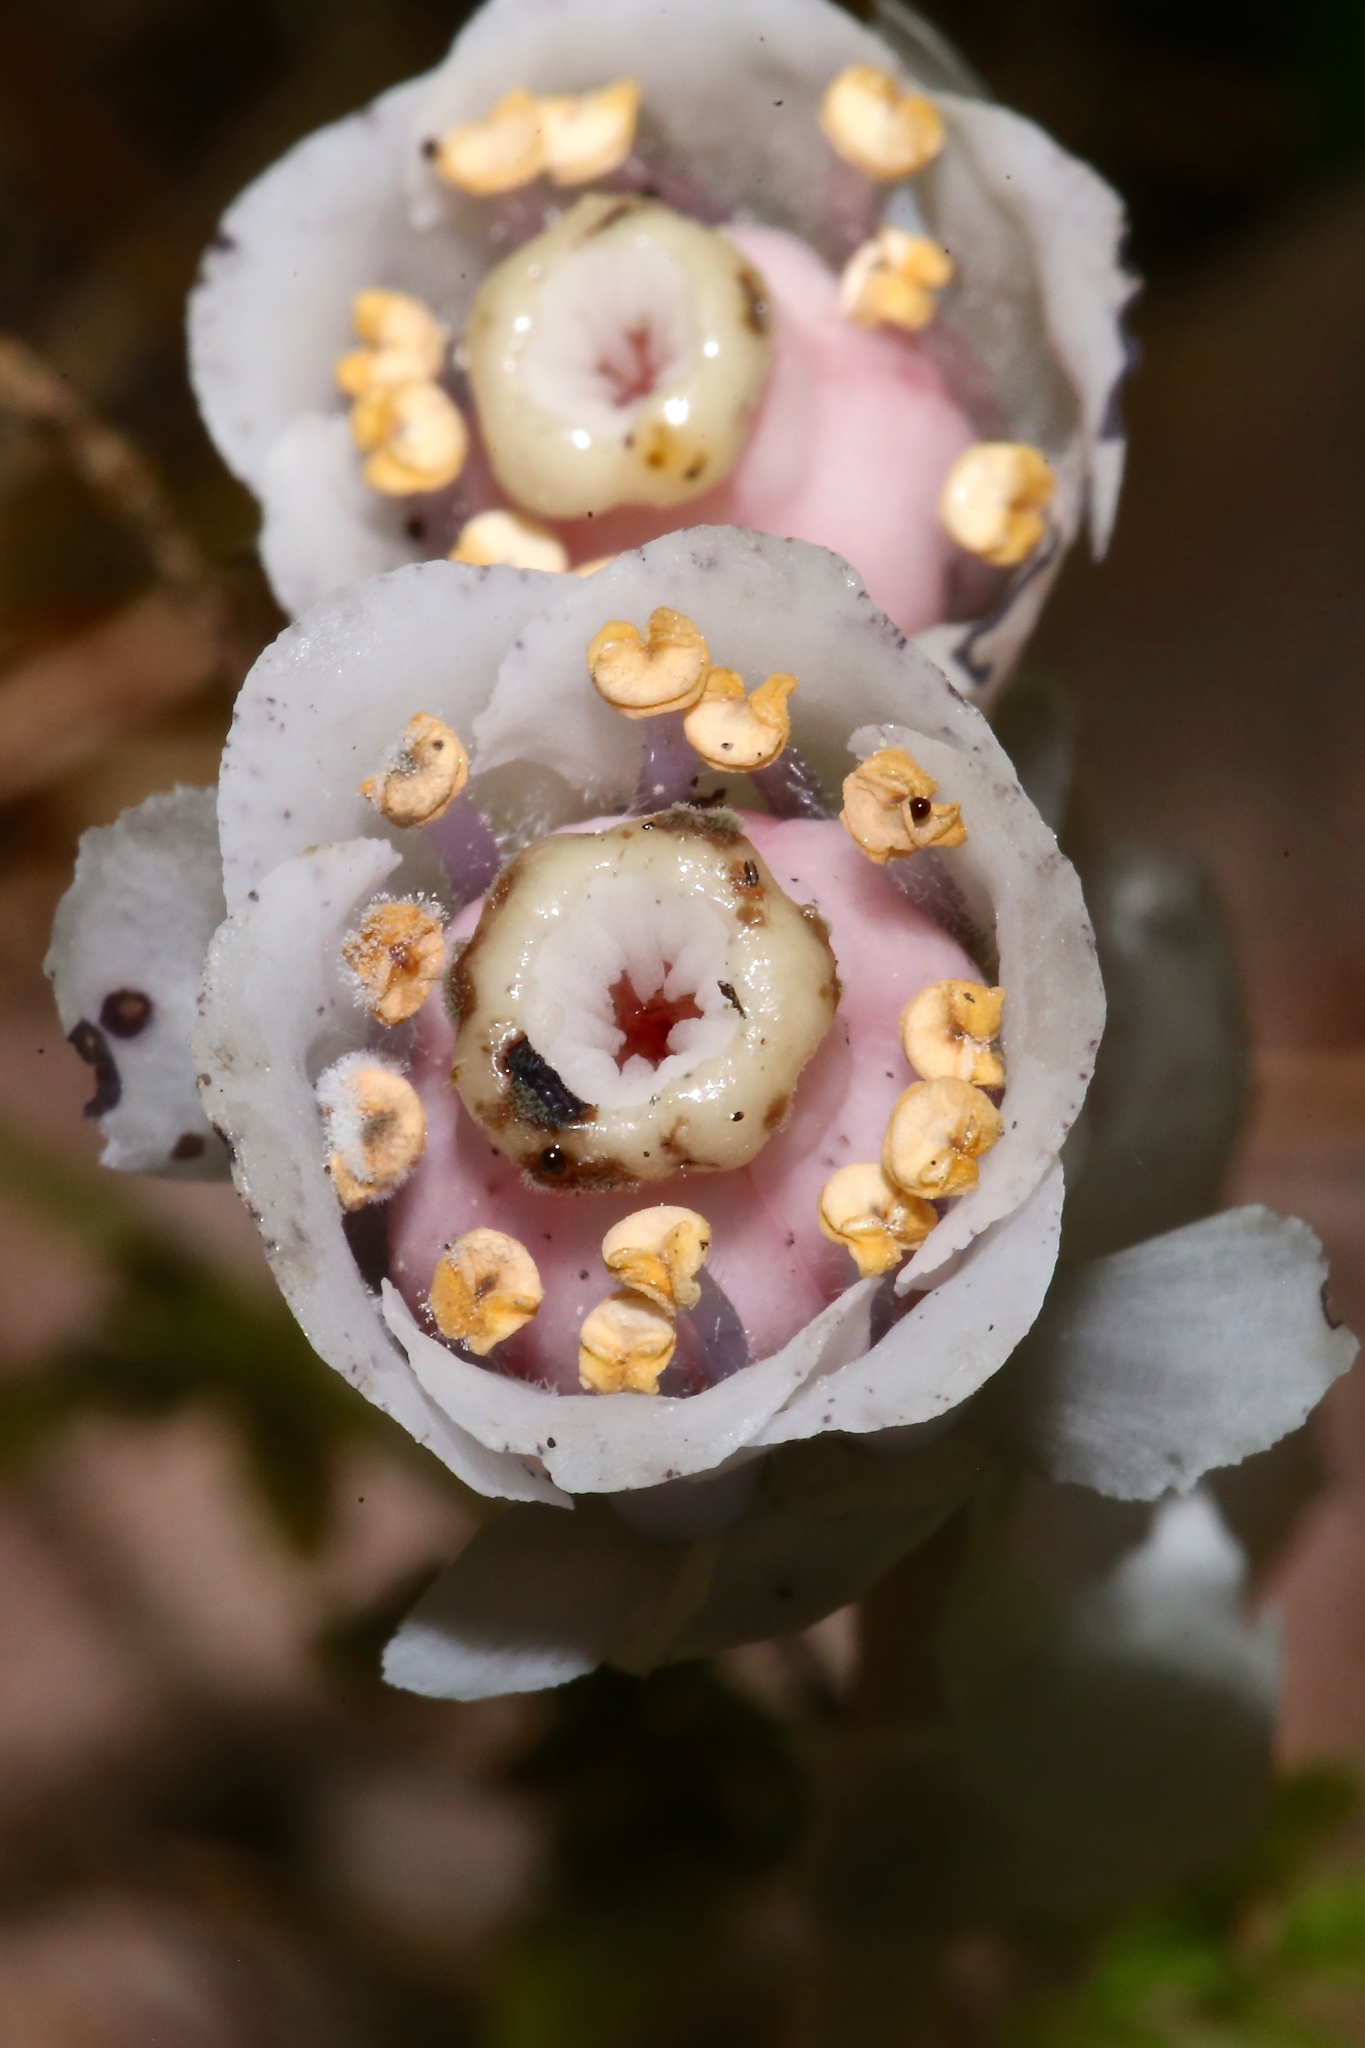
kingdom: Plantae
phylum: Tracheophyta
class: Magnoliopsida
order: Ericales
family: Ericaceae
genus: Monotropa
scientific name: Monotropa uniflora
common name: Convulsion root
